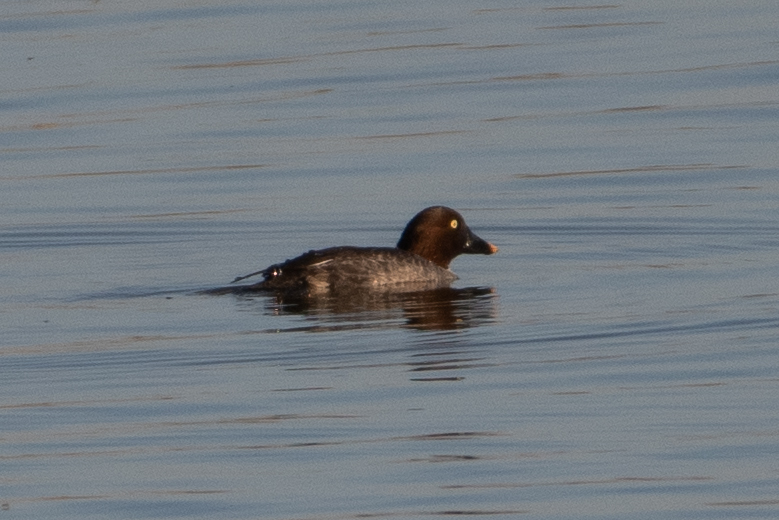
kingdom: Animalia
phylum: Chordata
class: Aves
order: Anseriformes
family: Anatidae
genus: Bucephala
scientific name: Bucephala clangula
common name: Common goldeneye
